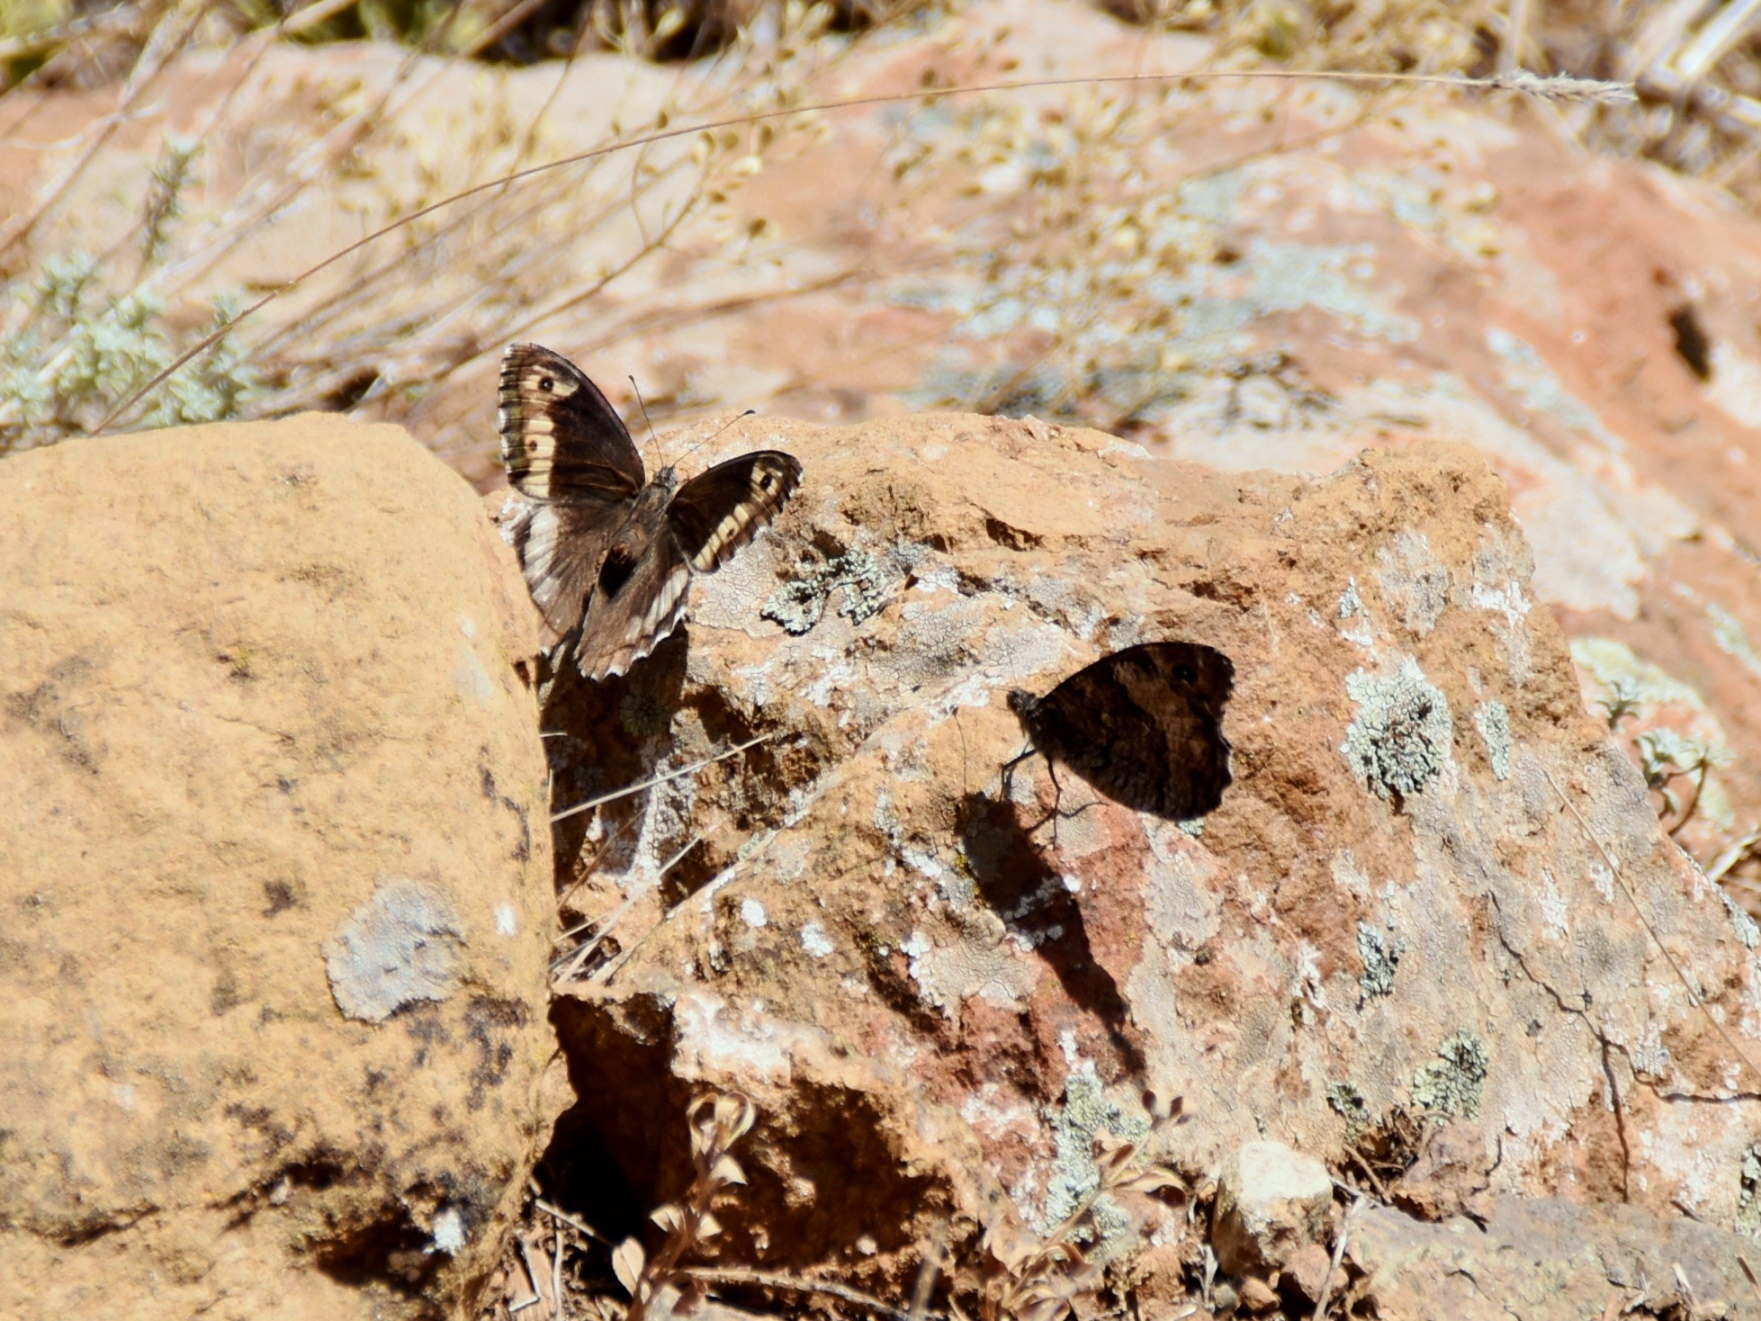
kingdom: Animalia
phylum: Arthropoda
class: Insecta
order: Lepidoptera
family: Nymphalidae
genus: Hipparchia
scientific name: Hipparchia syriaca
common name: Eastern rock grayling
